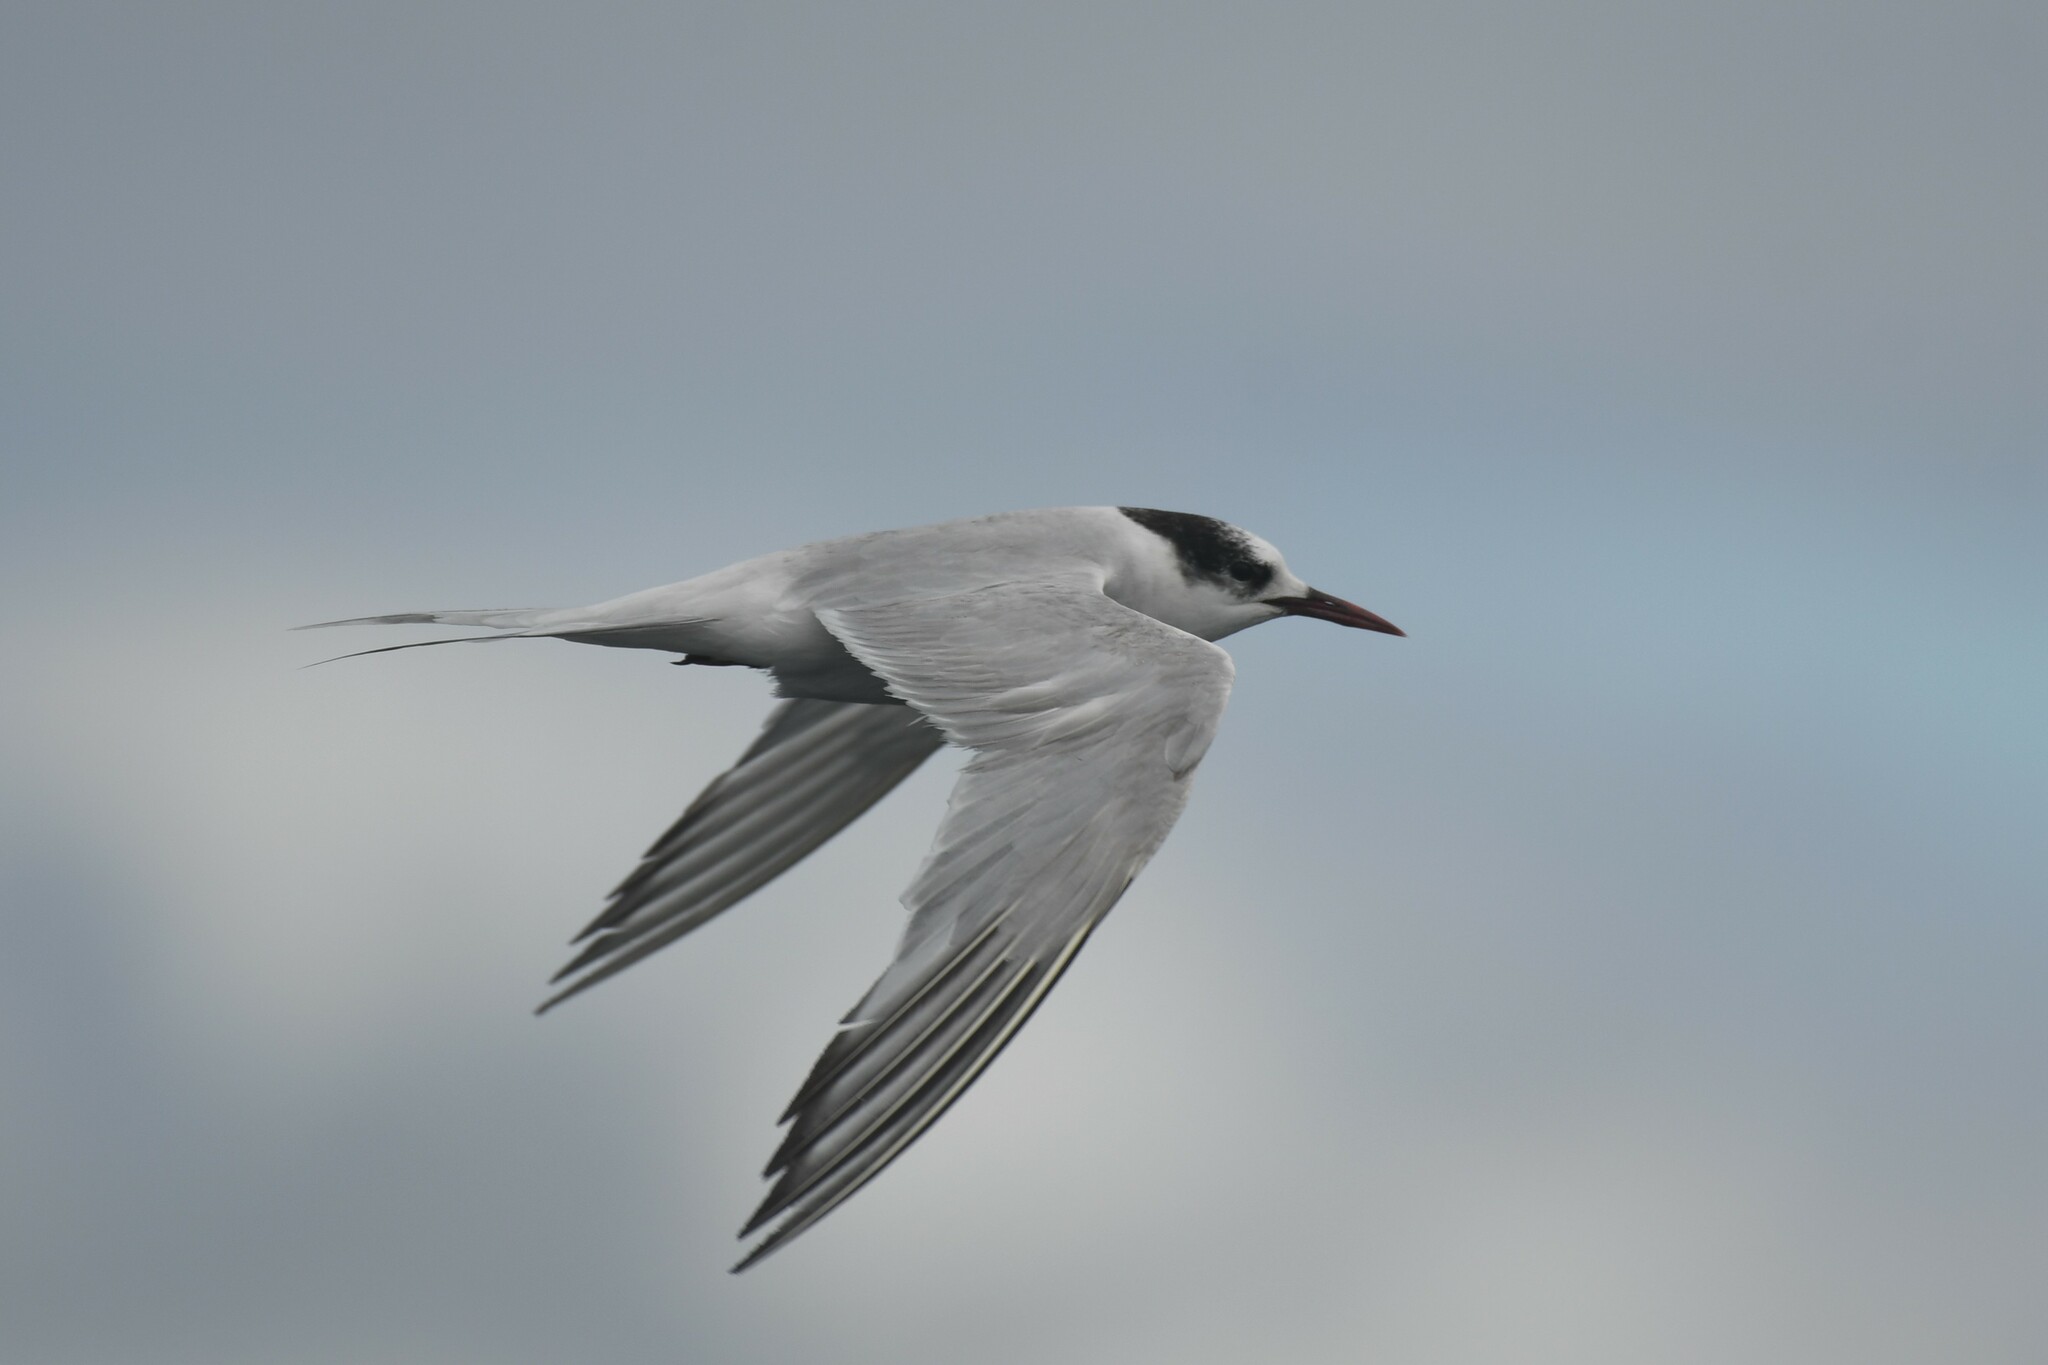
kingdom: Animalia
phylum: Chordata
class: Aves
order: Charadriiformes
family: Laridae
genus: Sterna
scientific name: Sterna hirundinacea
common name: South american tern
